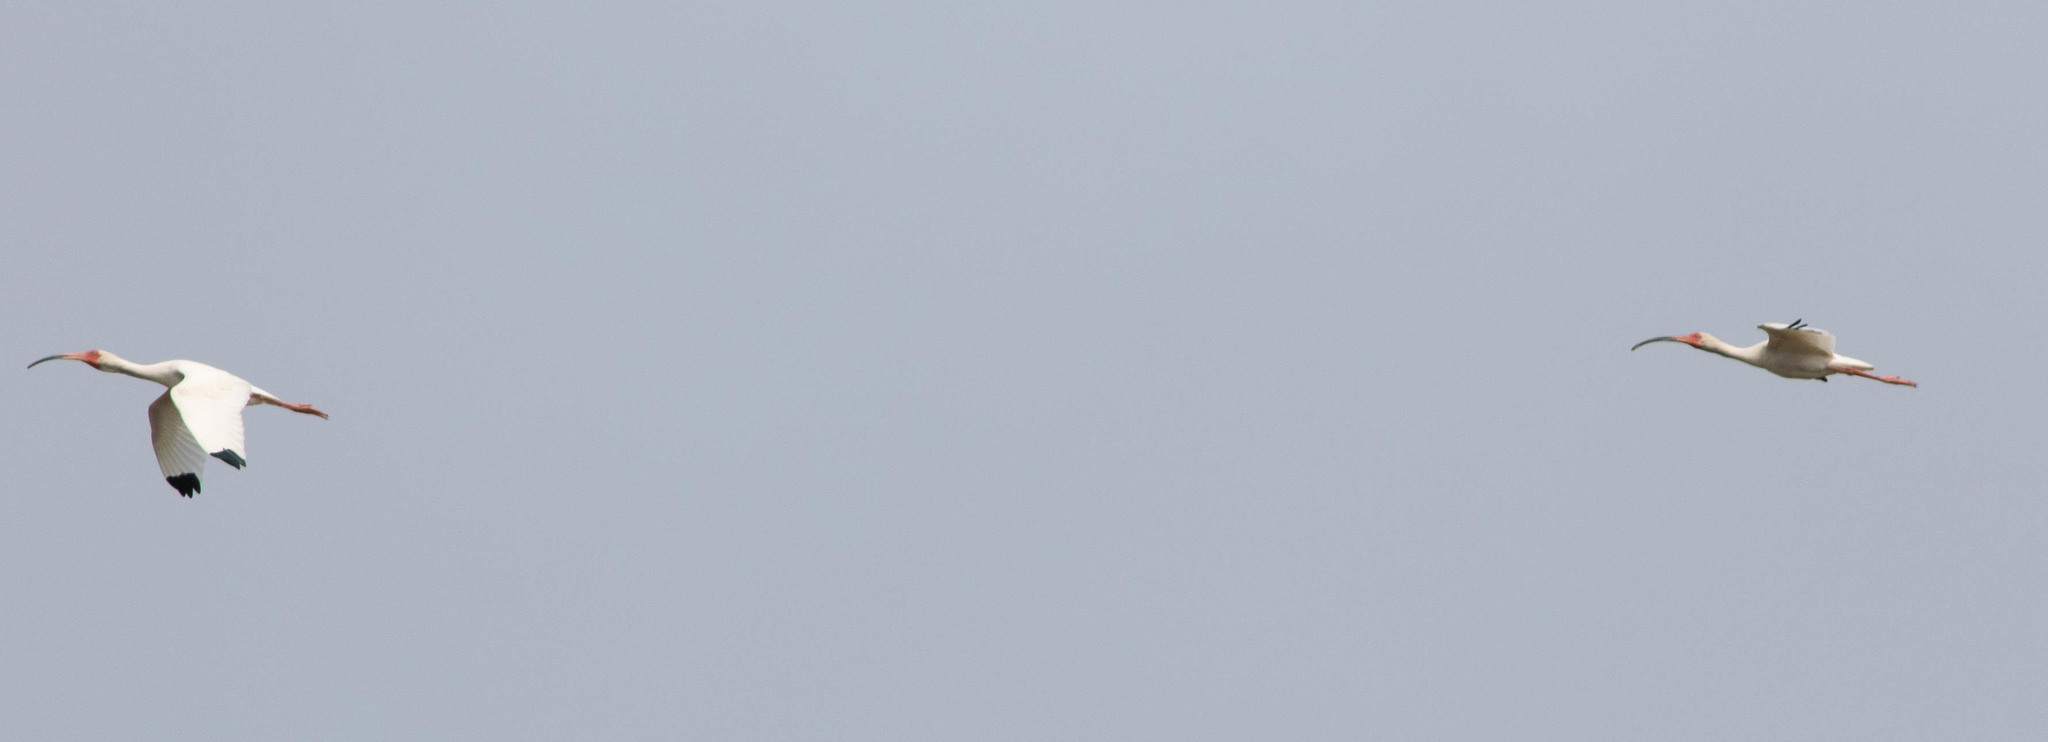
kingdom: Animalia
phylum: Chordata
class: Aves
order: Pelecaniformes
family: Threskiornithidae
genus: Eudocimus
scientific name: Eudocimus albus
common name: White ibis
